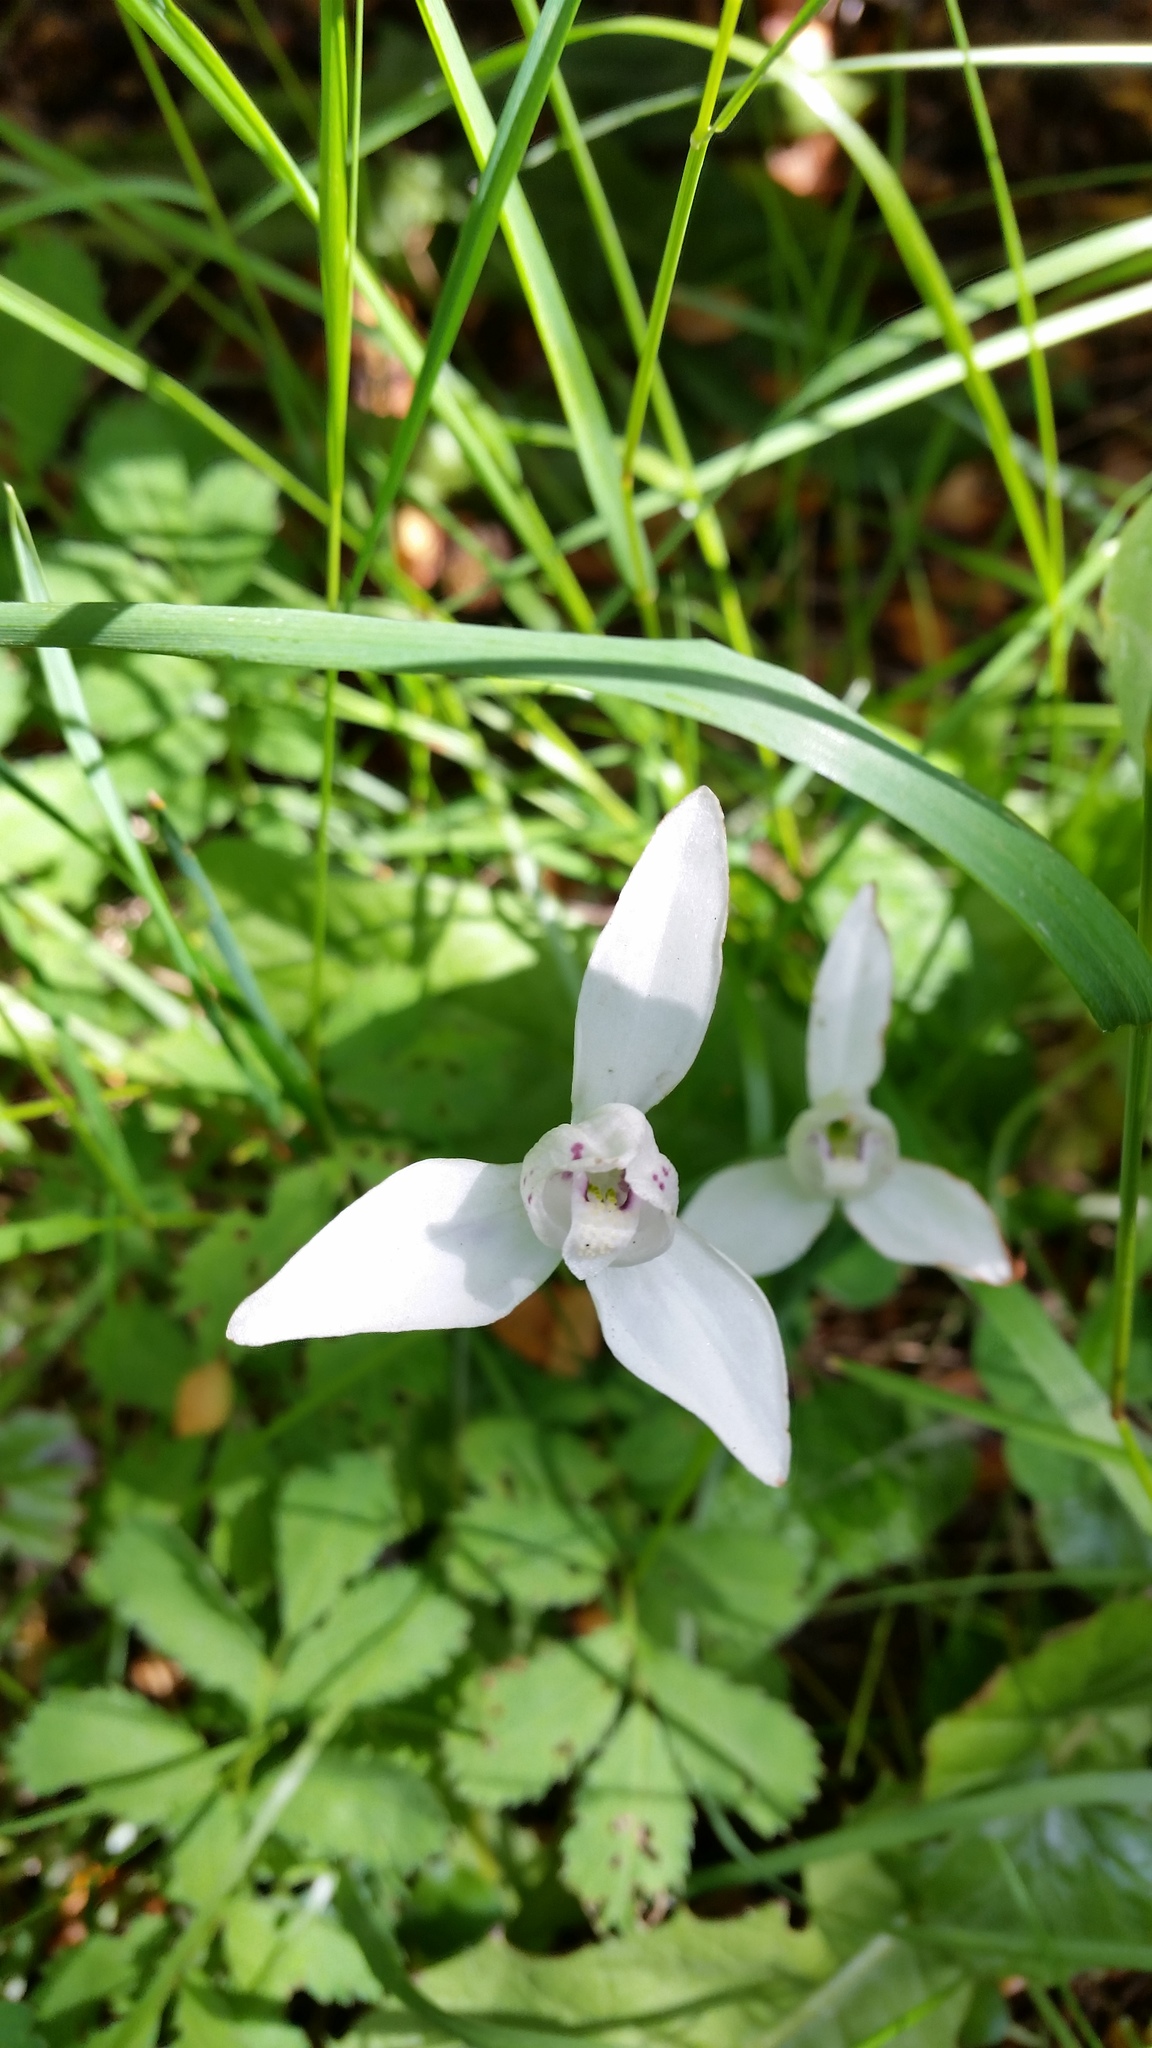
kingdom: Plantae
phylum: Tracheophyta
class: Liliopsida
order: Asparagales
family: Orchidaceae
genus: Codonorchis
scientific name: Codonorchis lessonii
